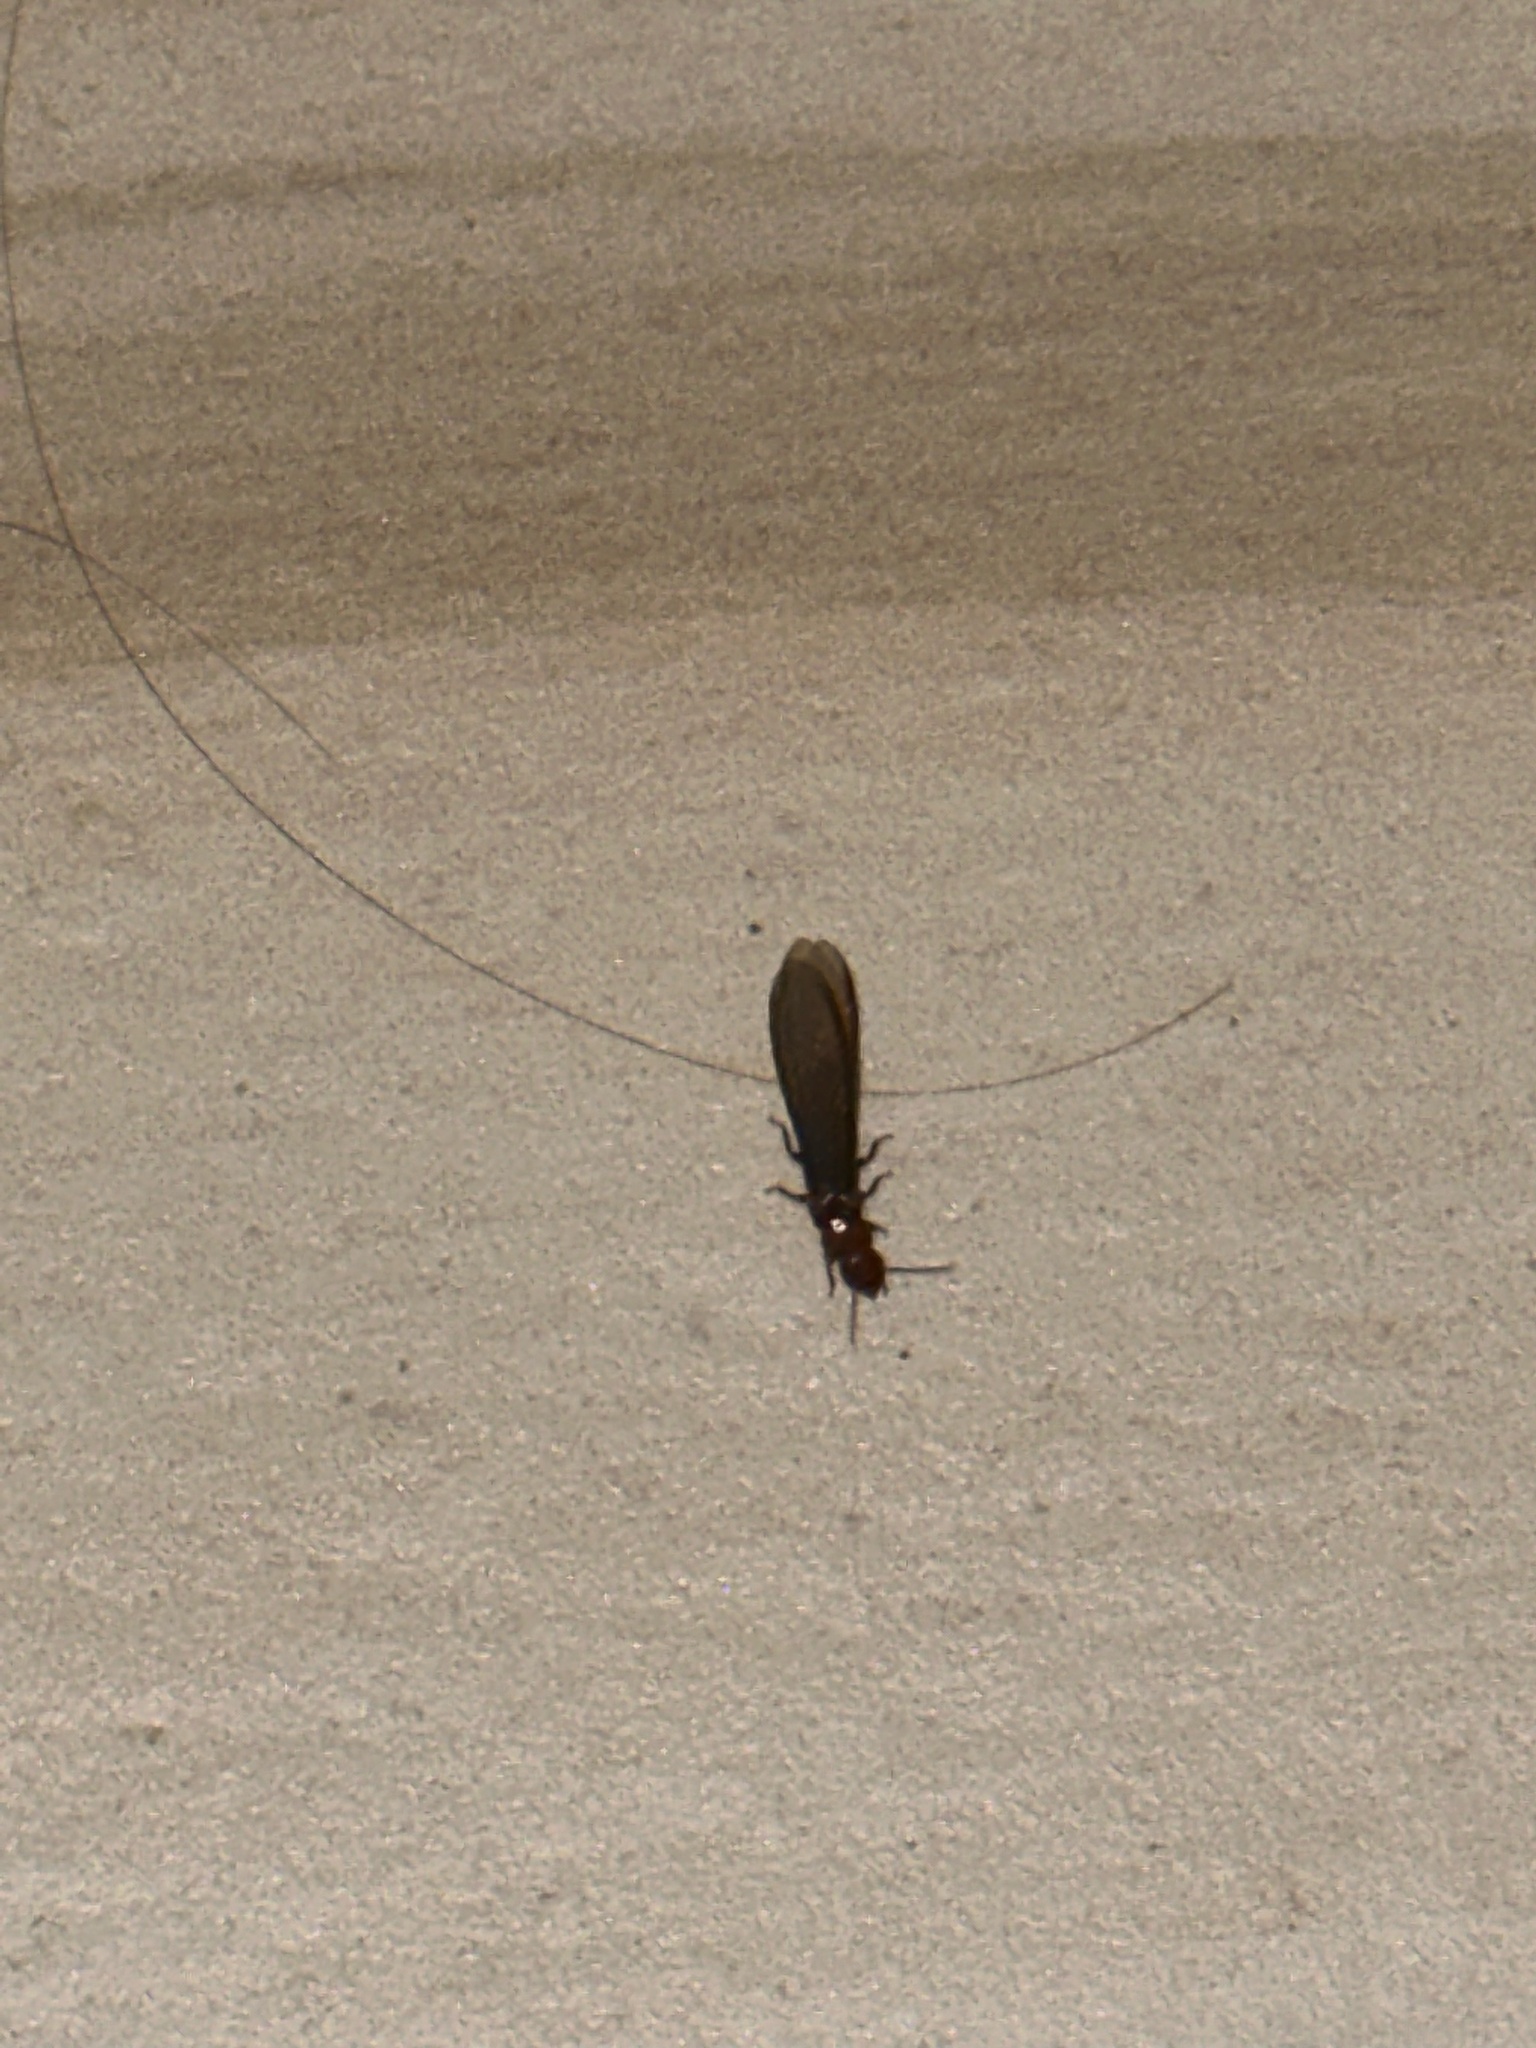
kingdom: Animalia
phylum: Arthropoda
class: Insecta
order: Blattodea
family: Kalotermitidae
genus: Incisitermes
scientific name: Incisitermes minor
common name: Termite
